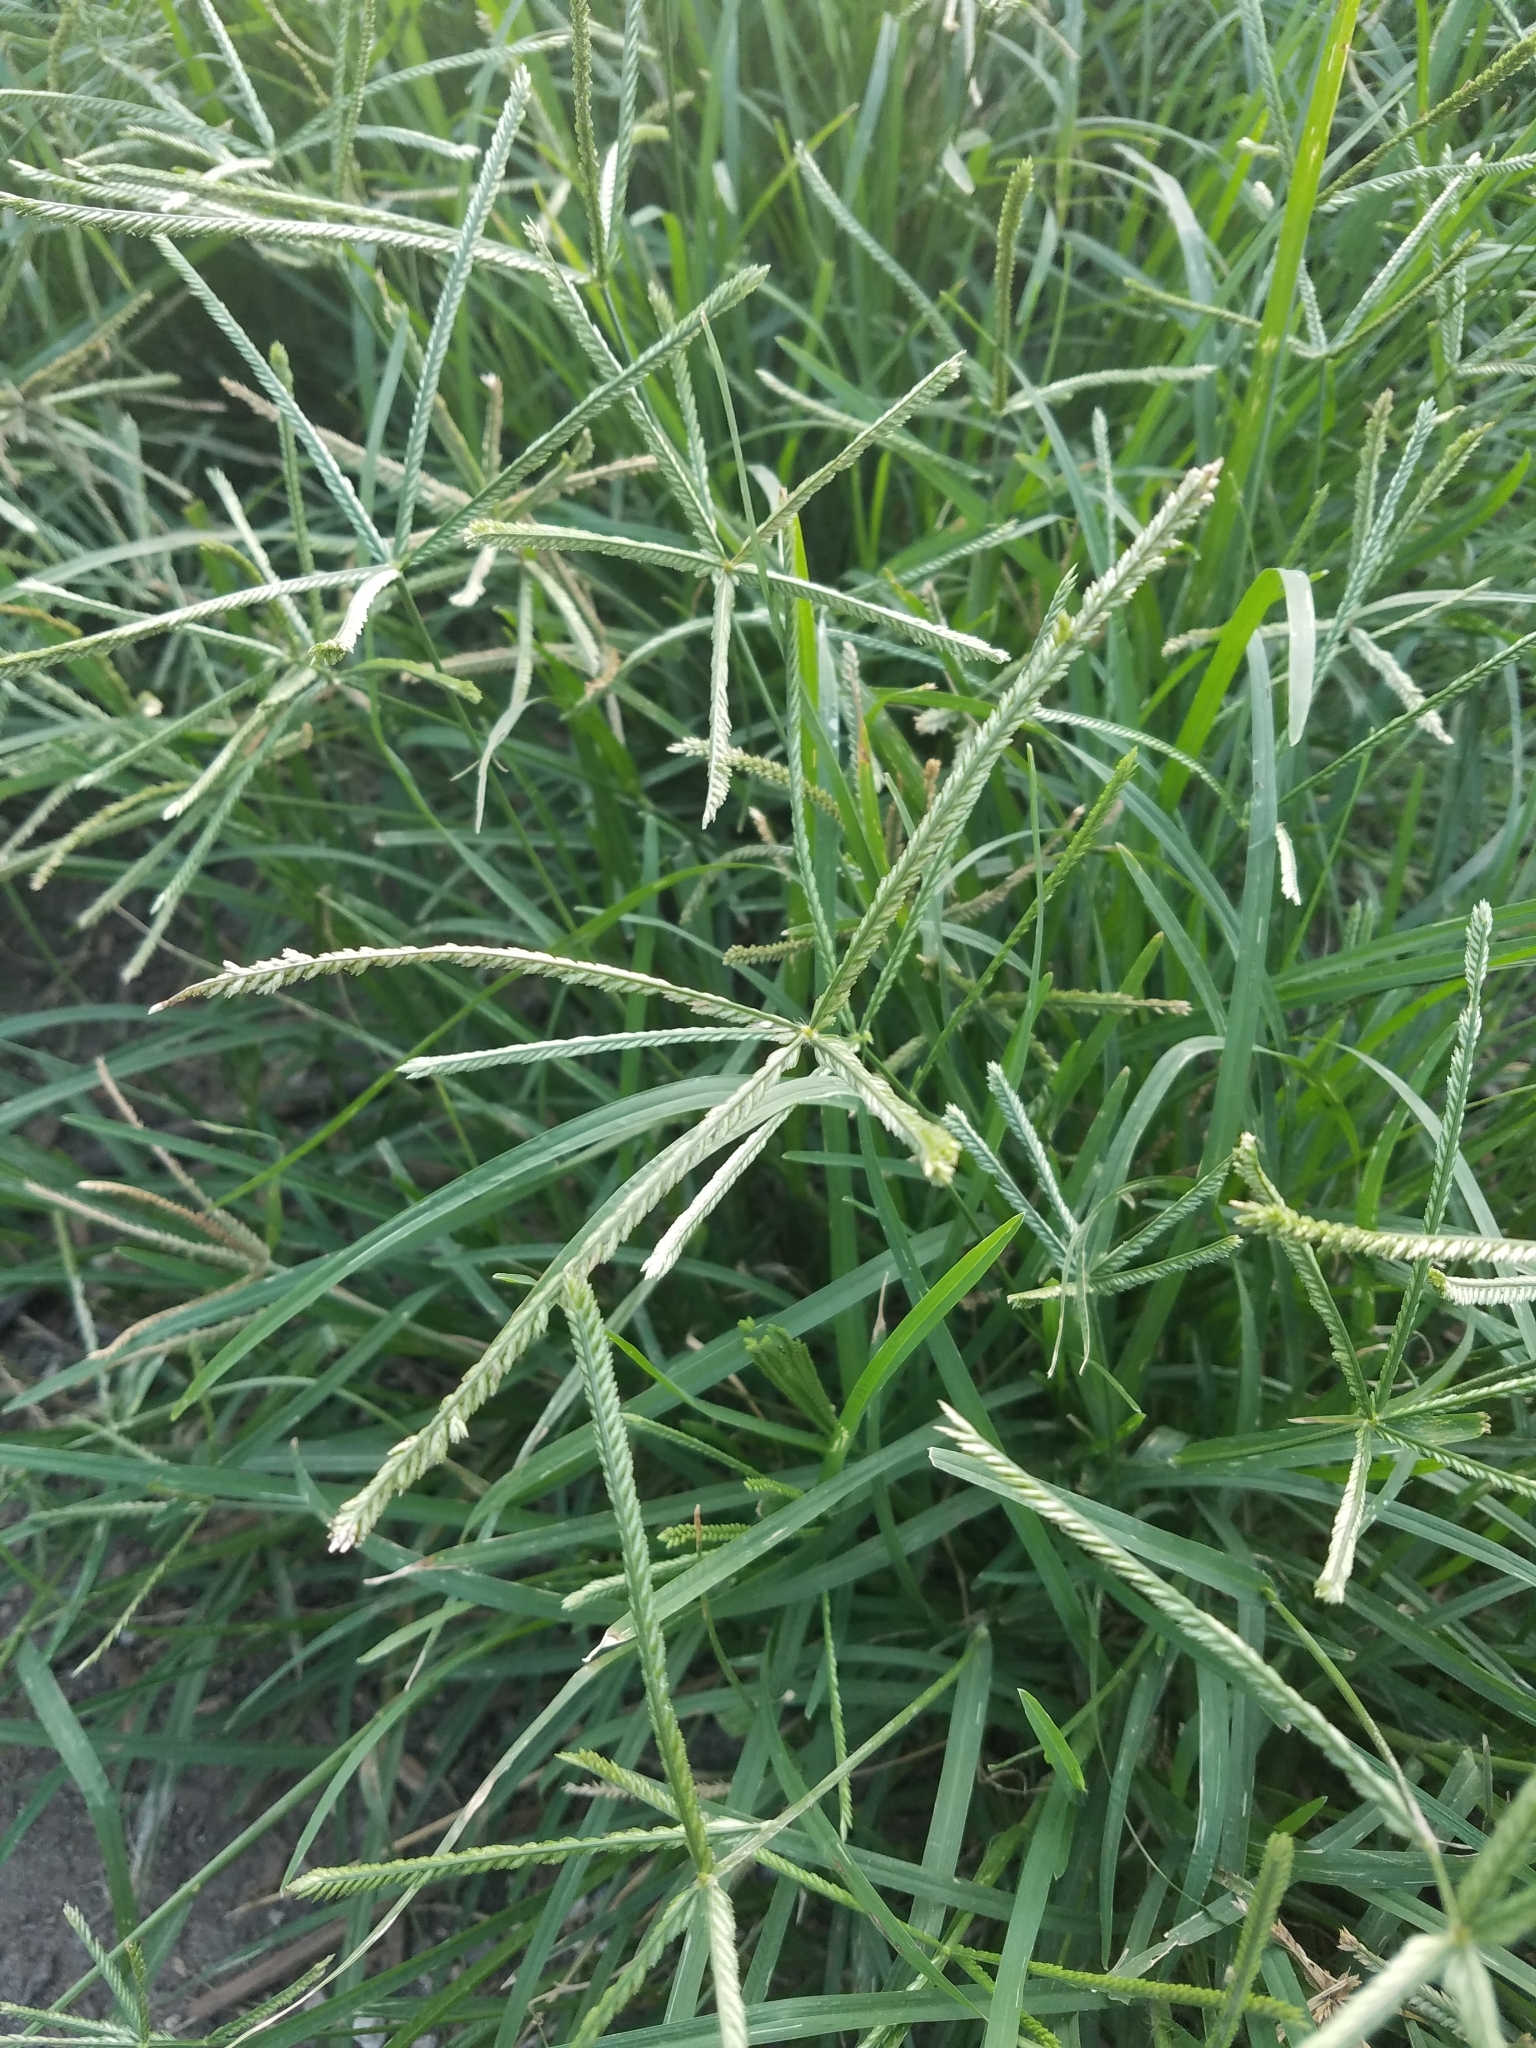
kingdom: Plantae
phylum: Tracheophyta
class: Liliopsida
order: Poales
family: Poaceae
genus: Eleusine
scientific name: Eleusine indica
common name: Yard-grass
